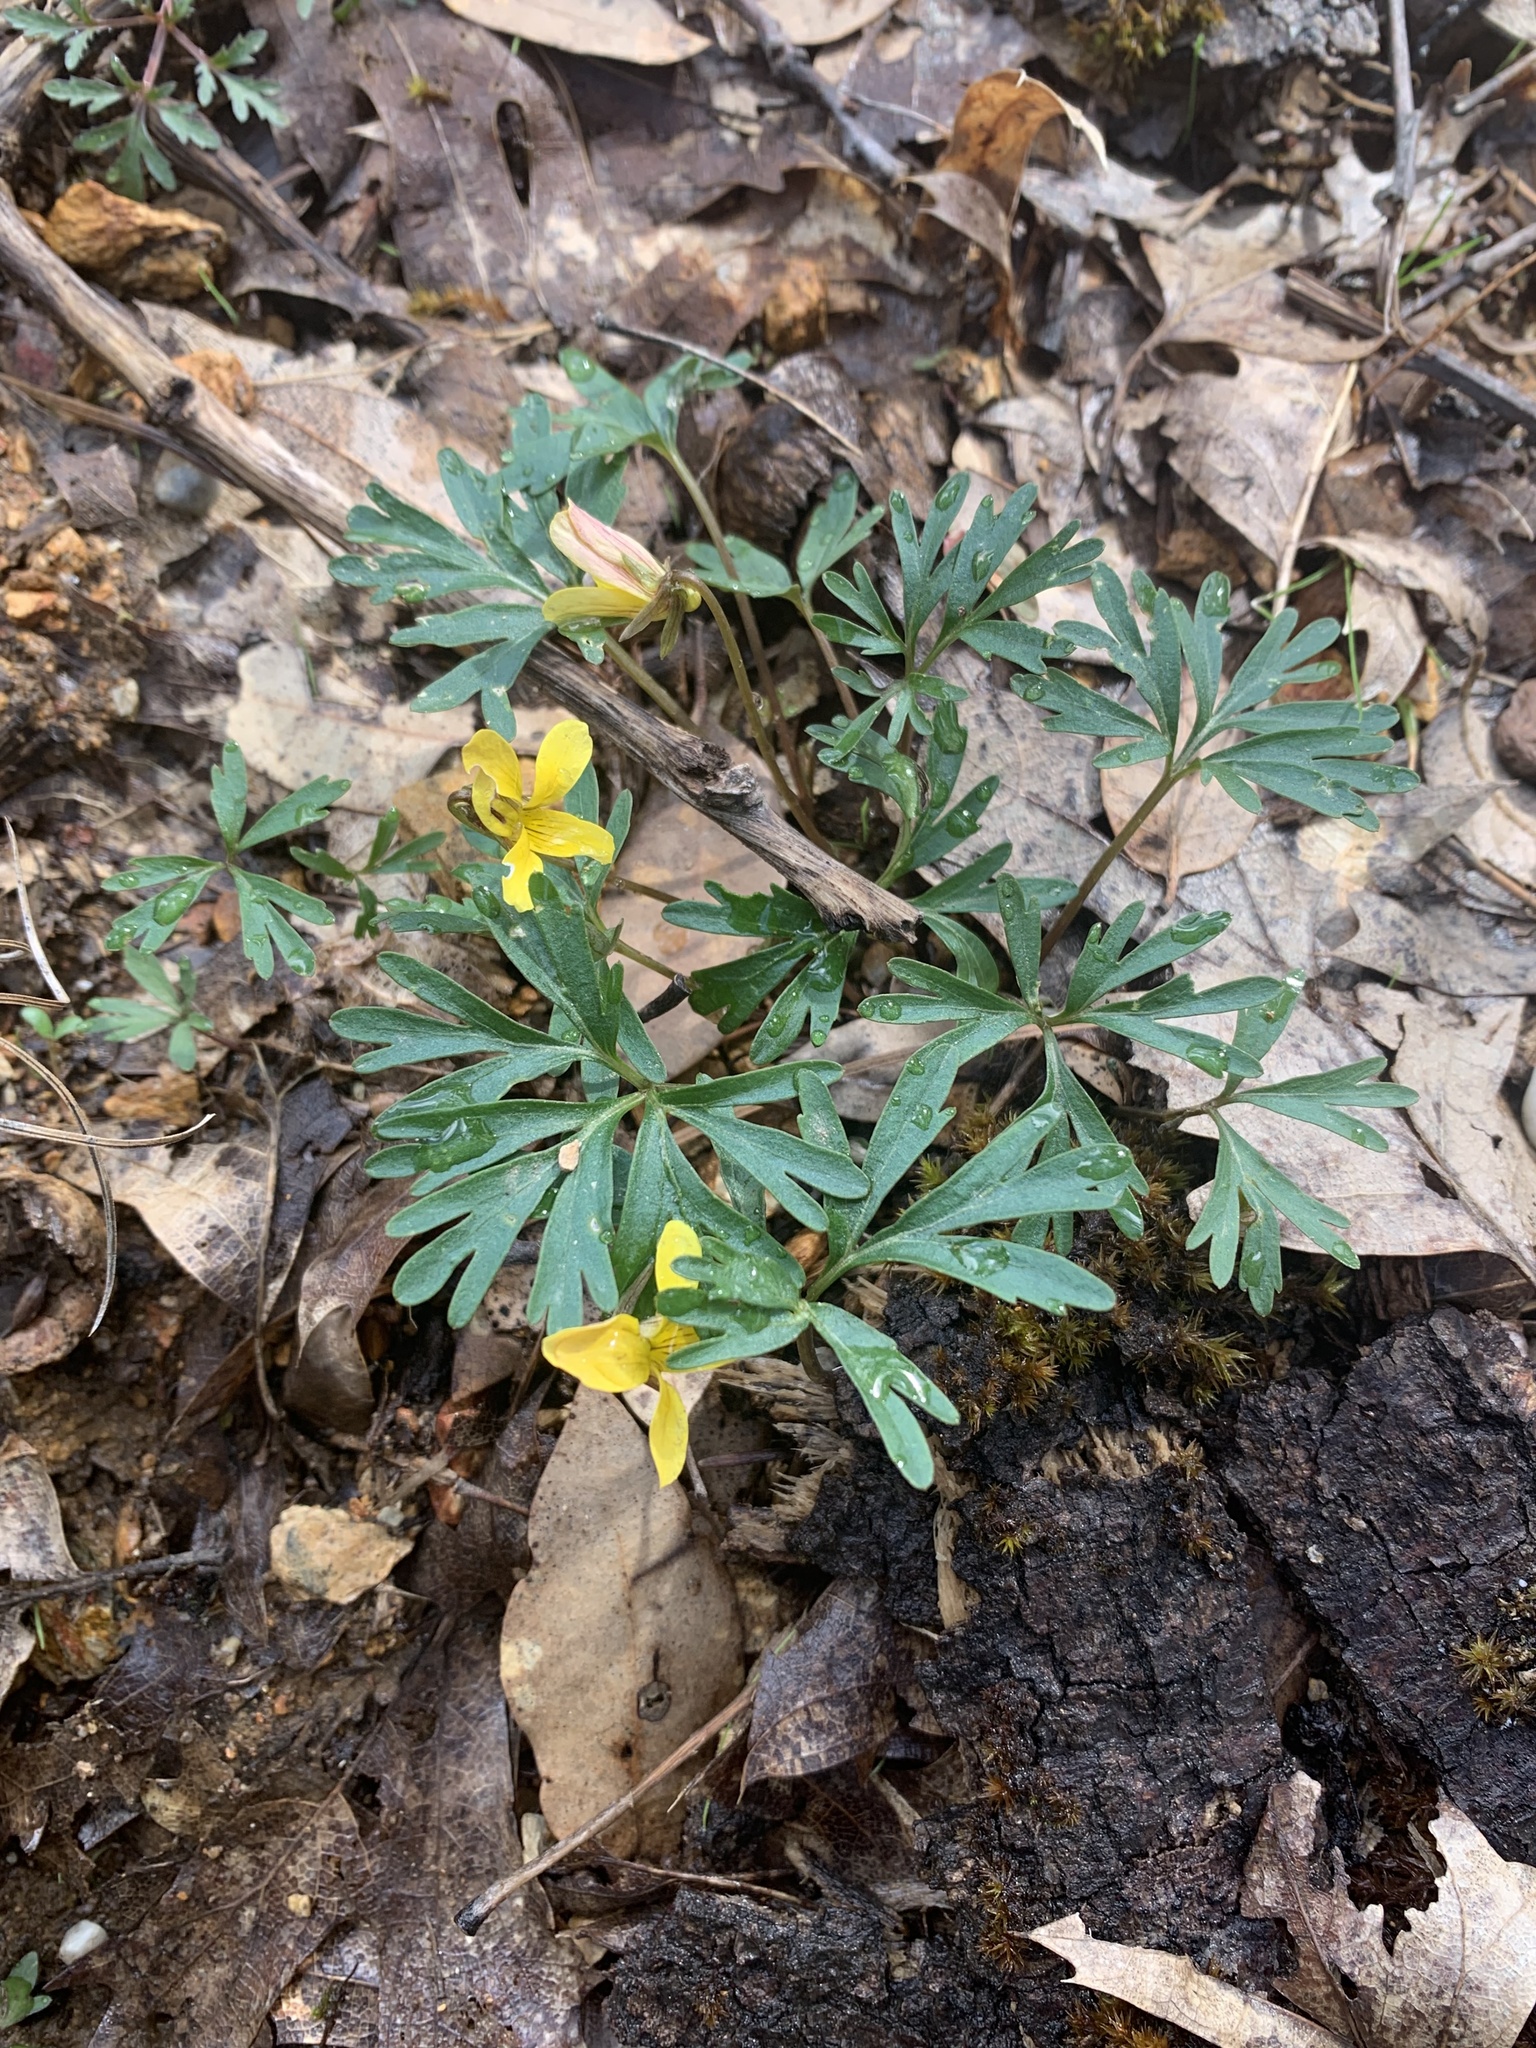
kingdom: Plantae
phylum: Tracheophyta
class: Magnoliopsida
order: Malpighiales
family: Violaceae
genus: Viola
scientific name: Viola sheltonii
